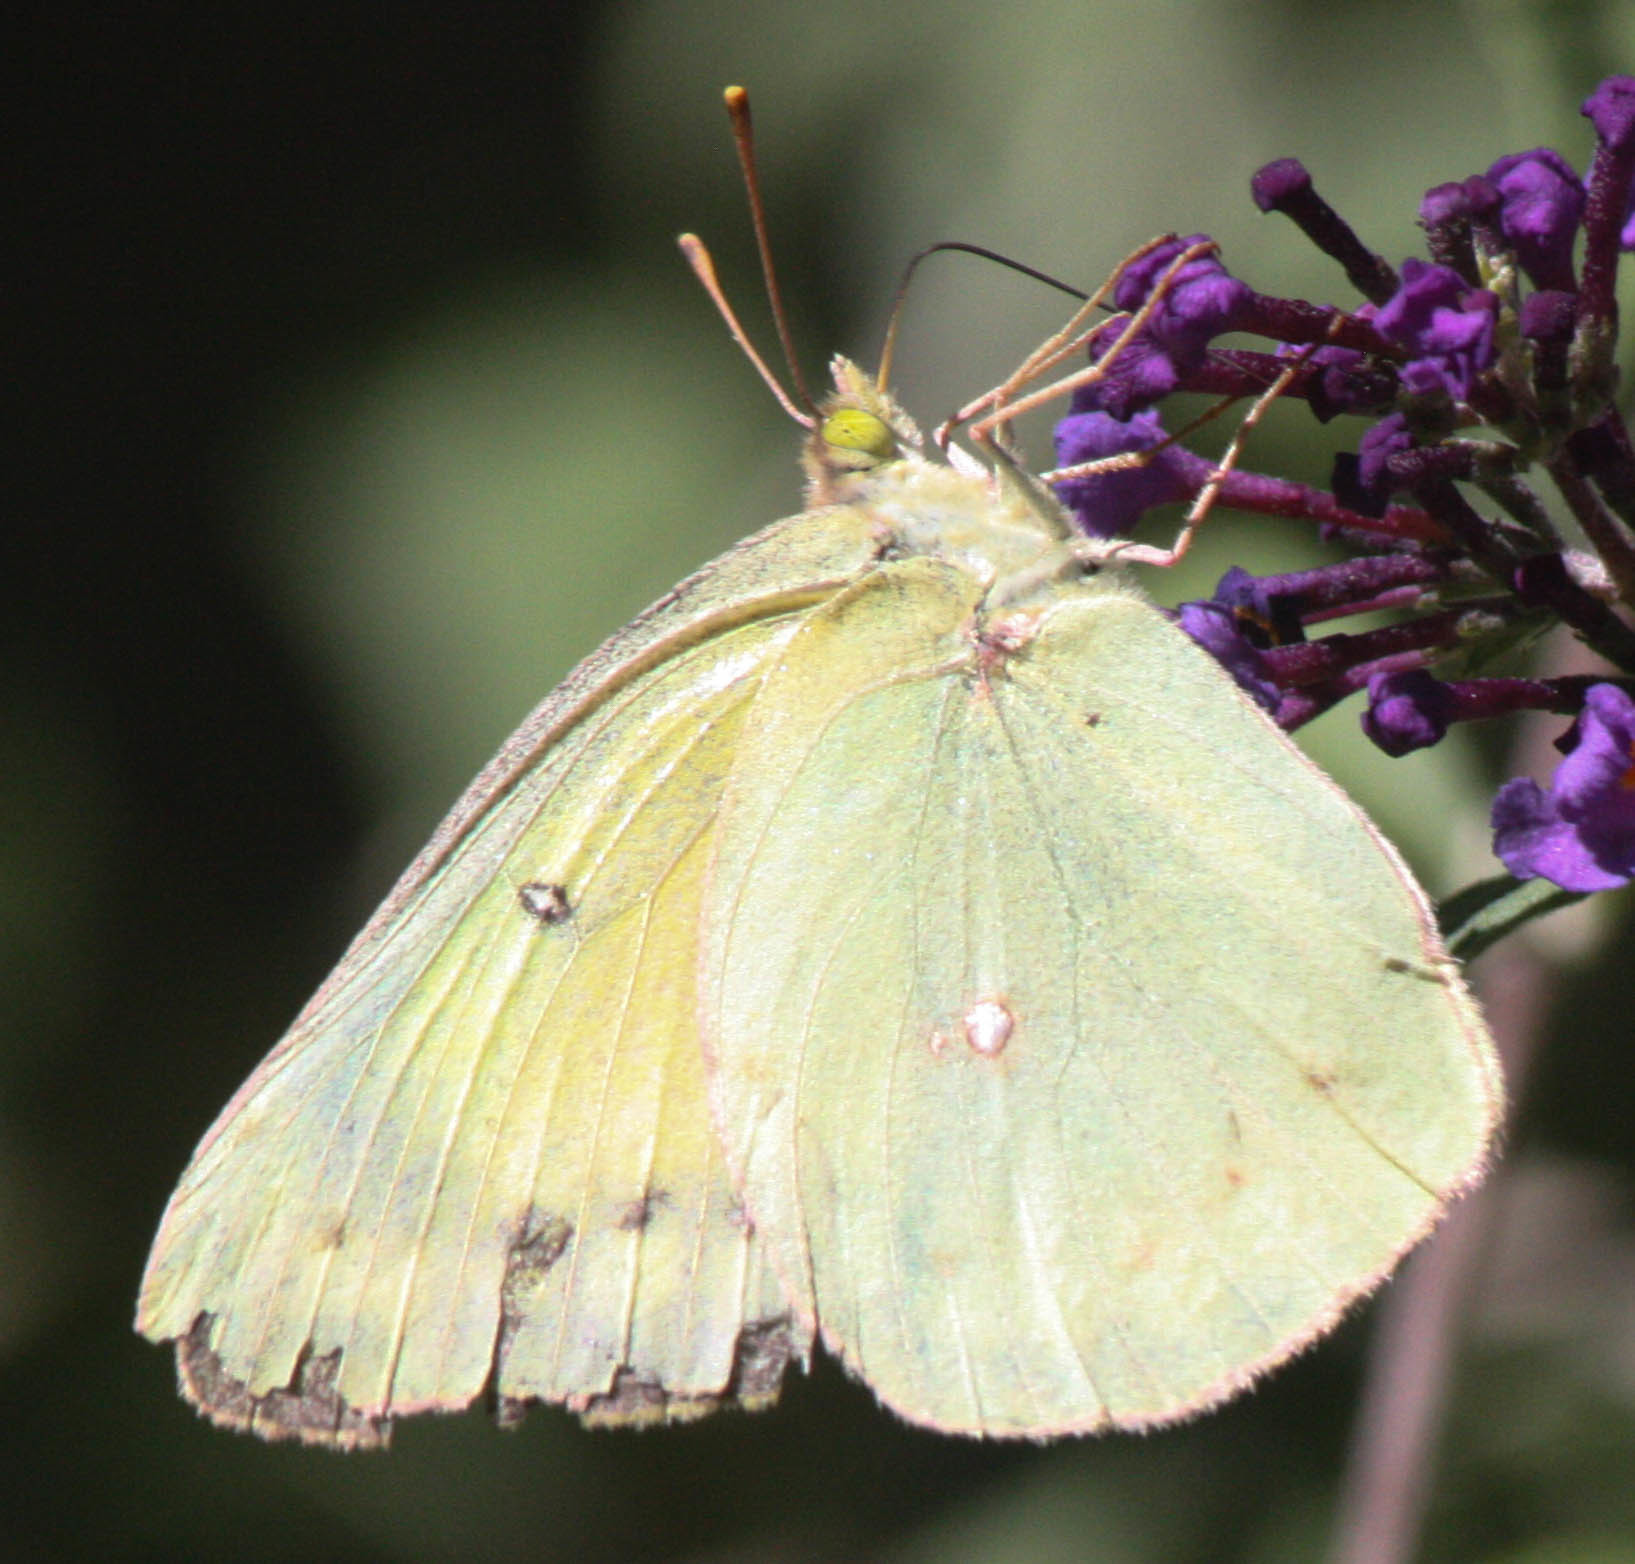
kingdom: Animalia
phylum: Arthropoda
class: Insecta
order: Lepidoptera
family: Pieridae
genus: Colias
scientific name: Colias eurytheme
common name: Alfalfa butterfly
